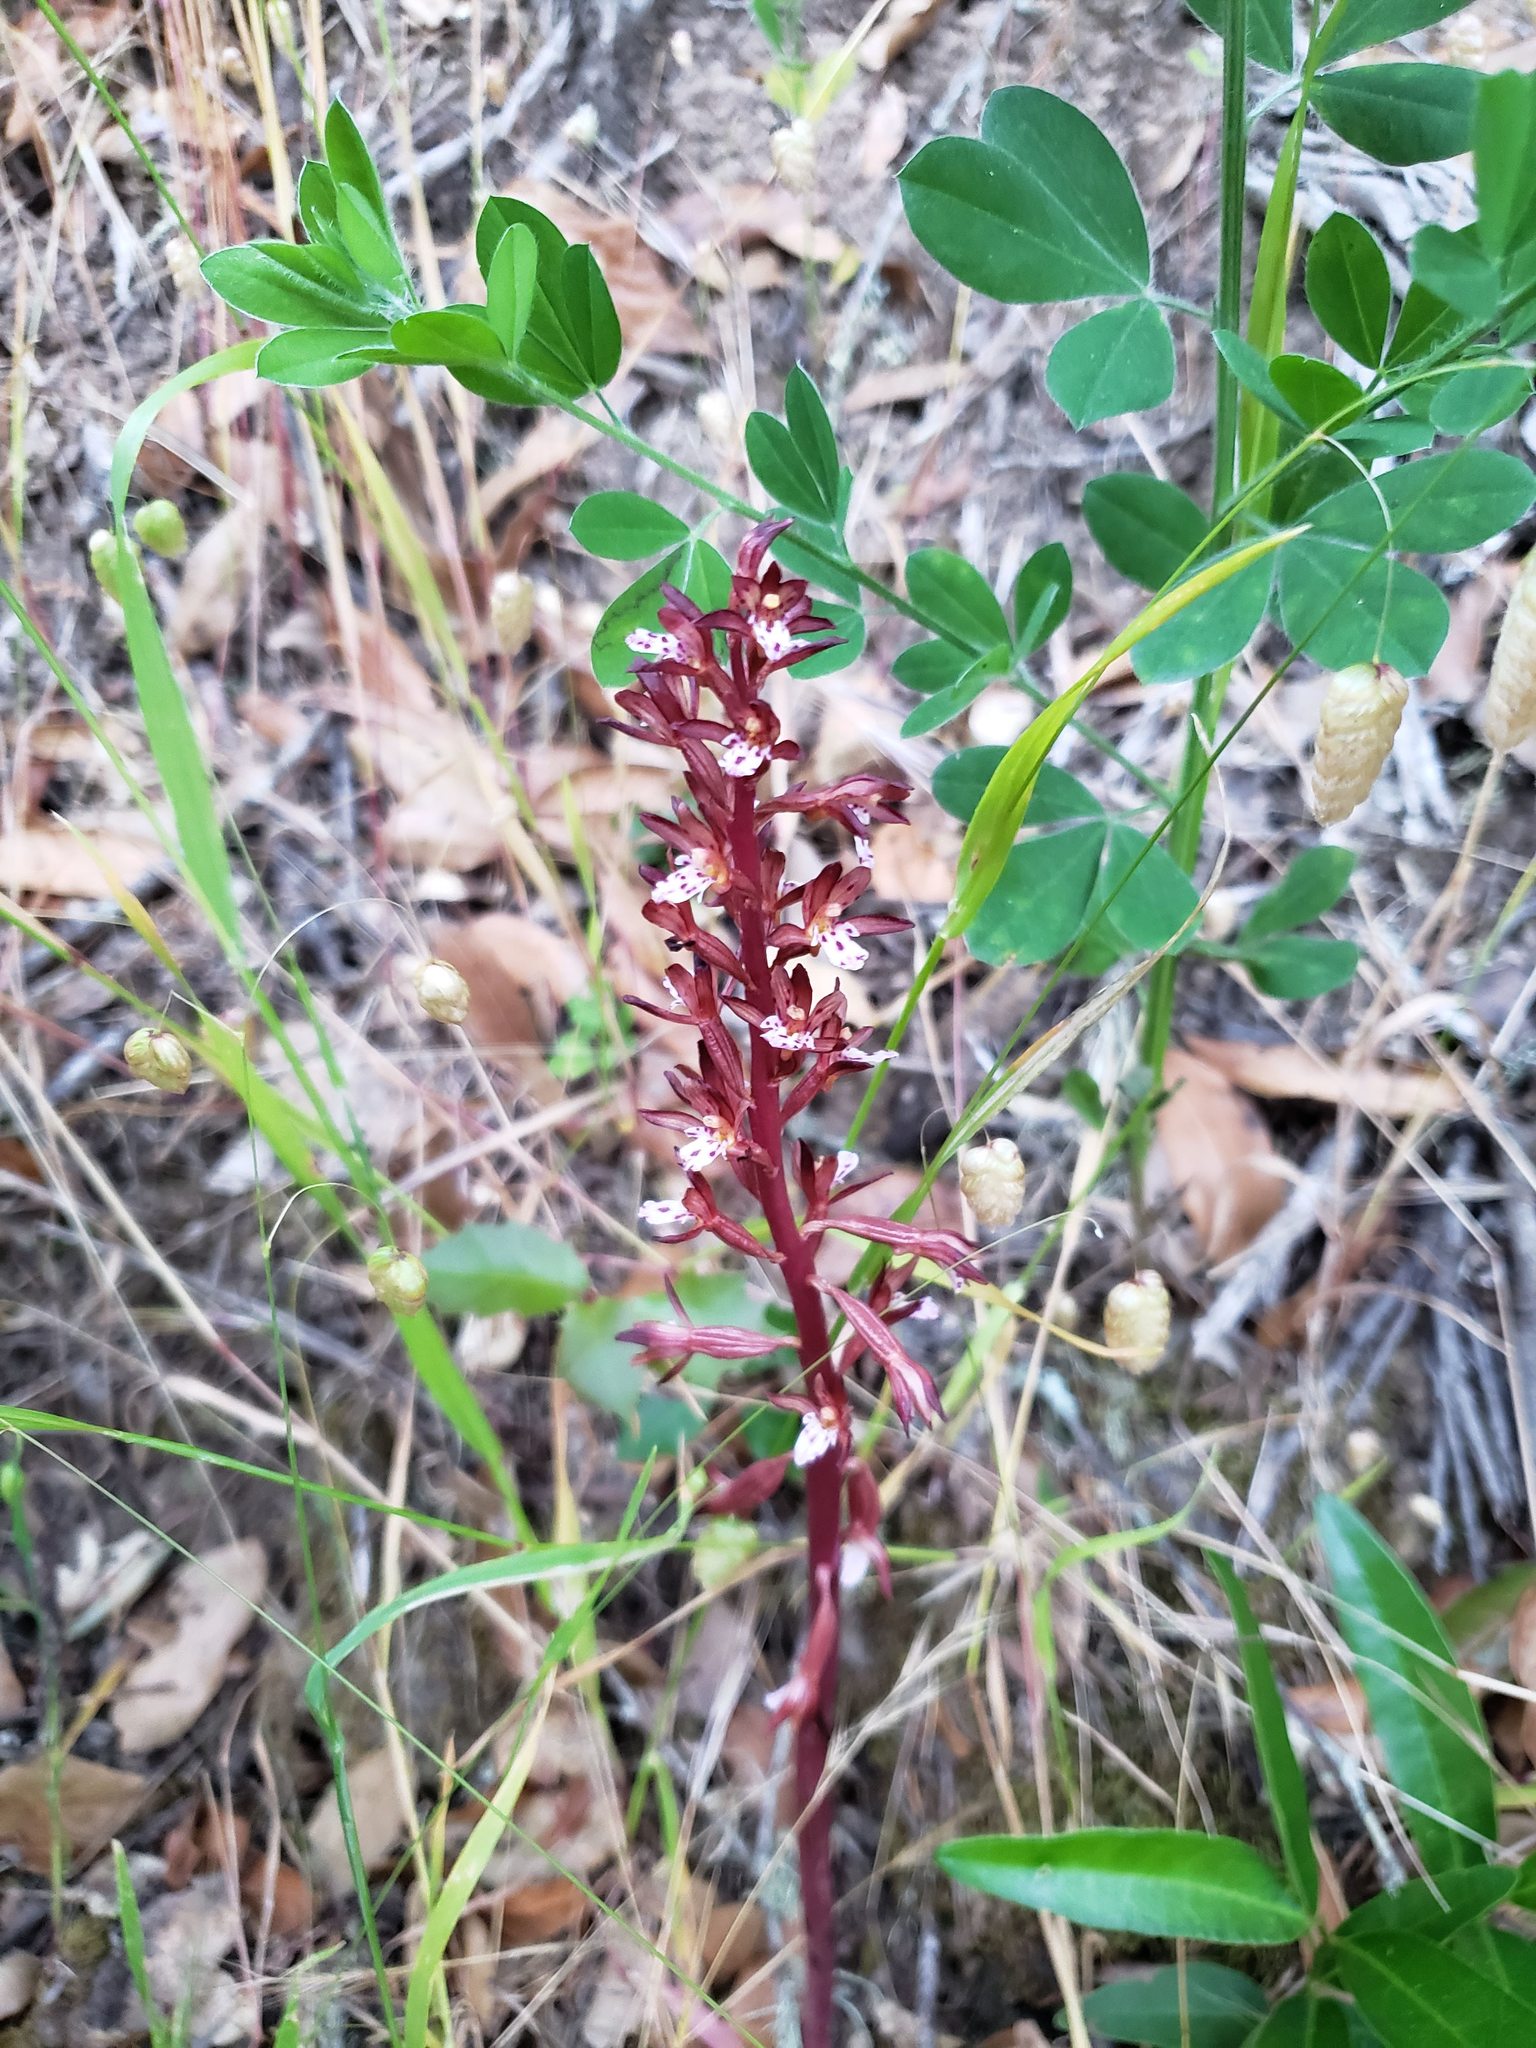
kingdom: Plantae
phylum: Tracheophyta
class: Liliopsida
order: Asparagales
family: Orchidaceae
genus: Corallorhiza
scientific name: Corallorhiza maculata
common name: Spotted coralroot
